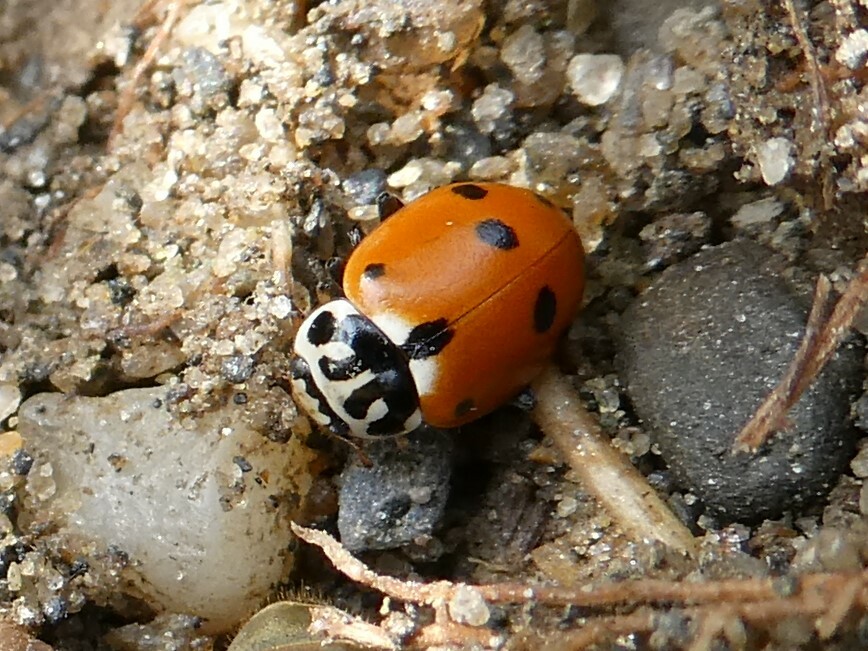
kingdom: Animalia
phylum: Arthropoda
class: Insecta
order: Coleoptera
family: Coccinellidae
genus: Hippodamia
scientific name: Hippodamia variegata
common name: Ladybird beetle
